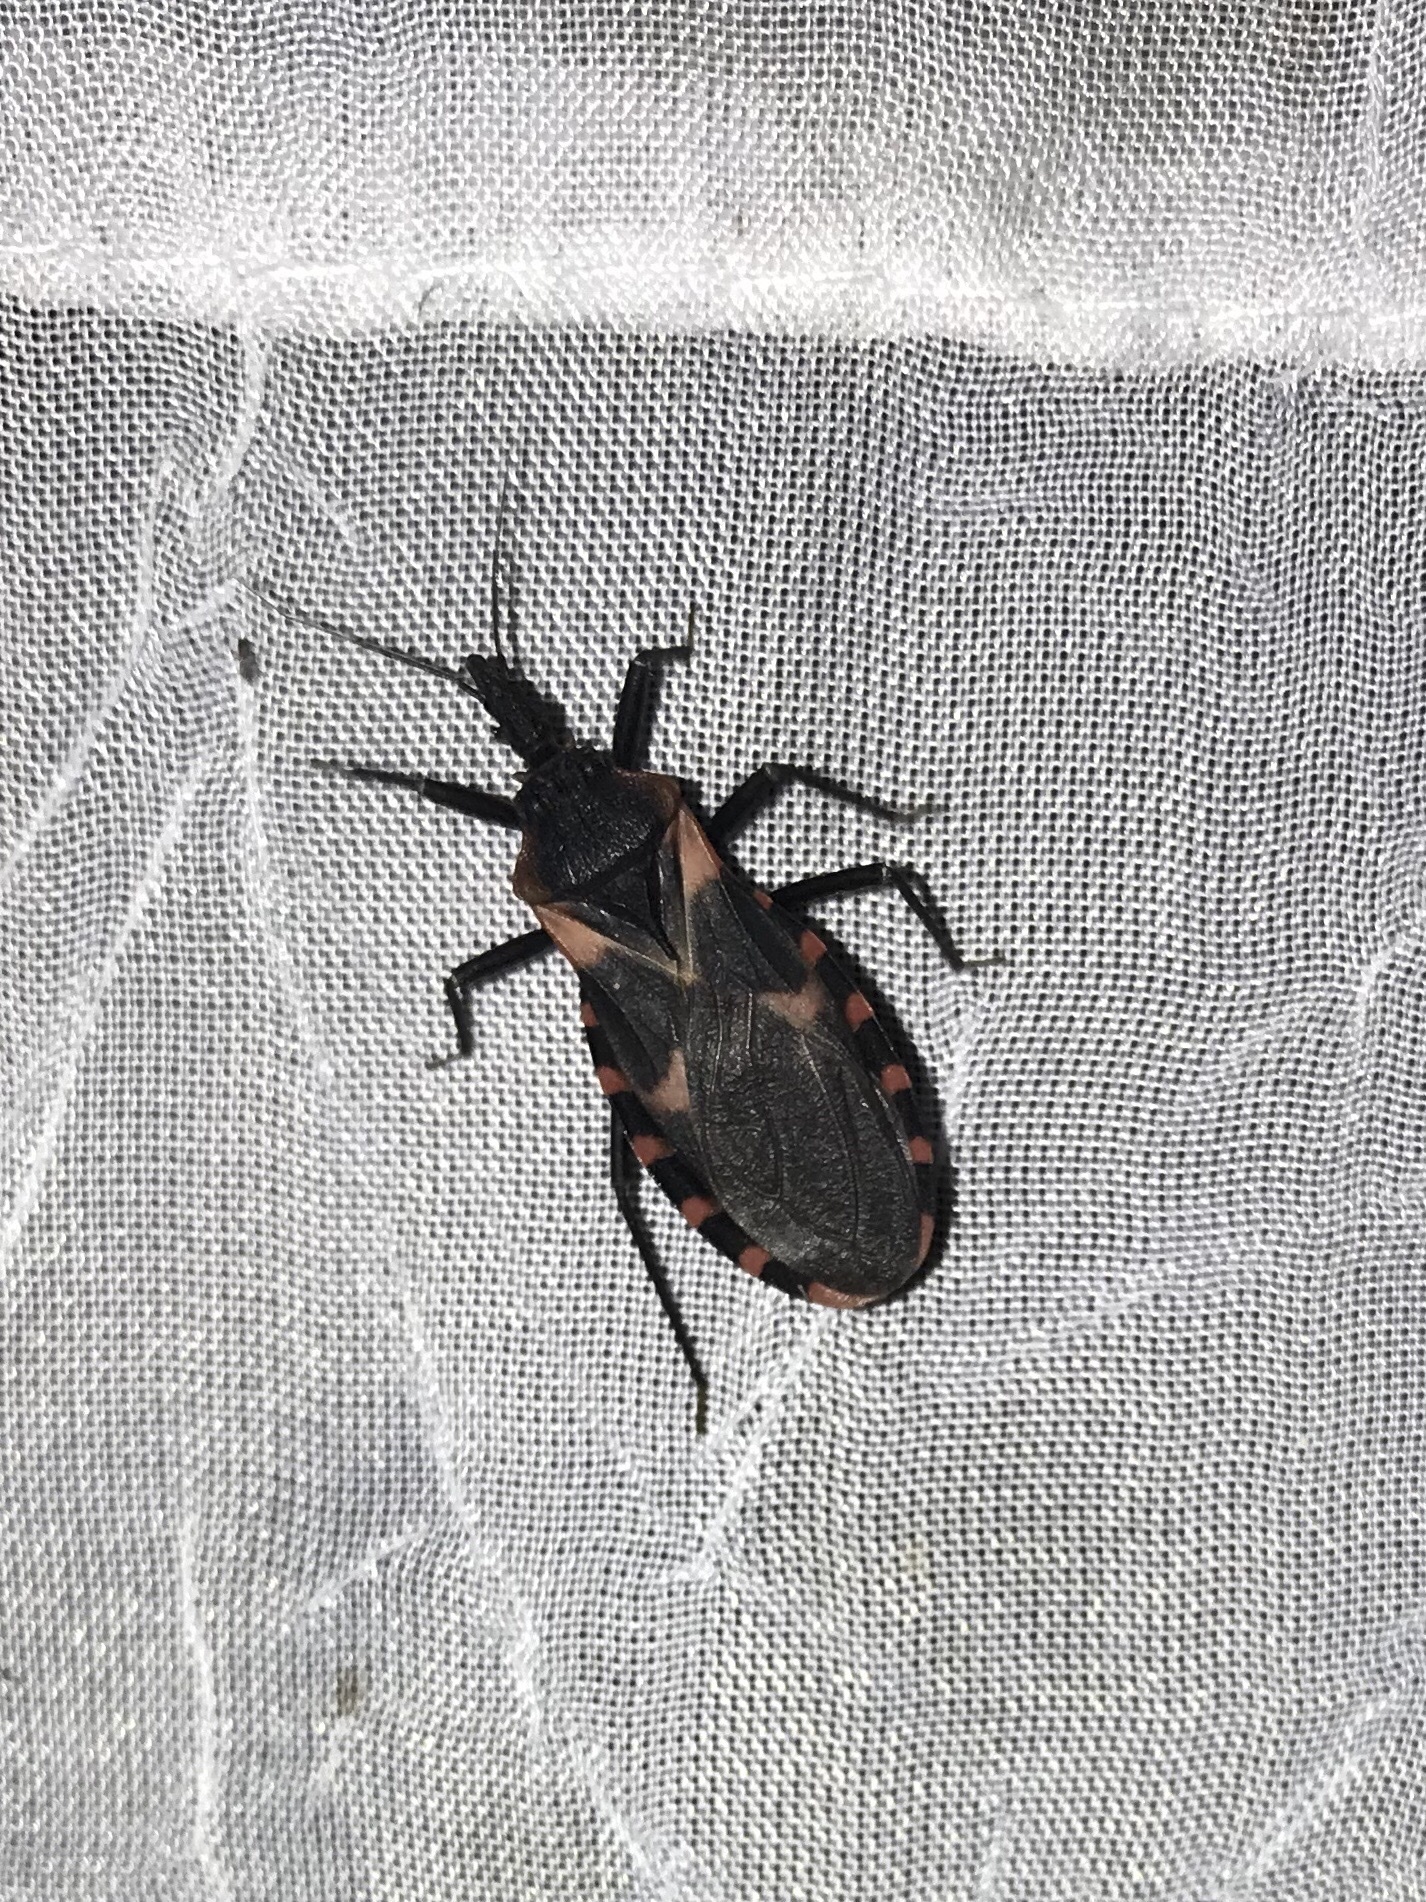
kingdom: Animalia
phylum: Arthropoda
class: Insecta
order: Hemiptera
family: Reduviidae
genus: Triatoma
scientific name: Triatoma sanguisuga
